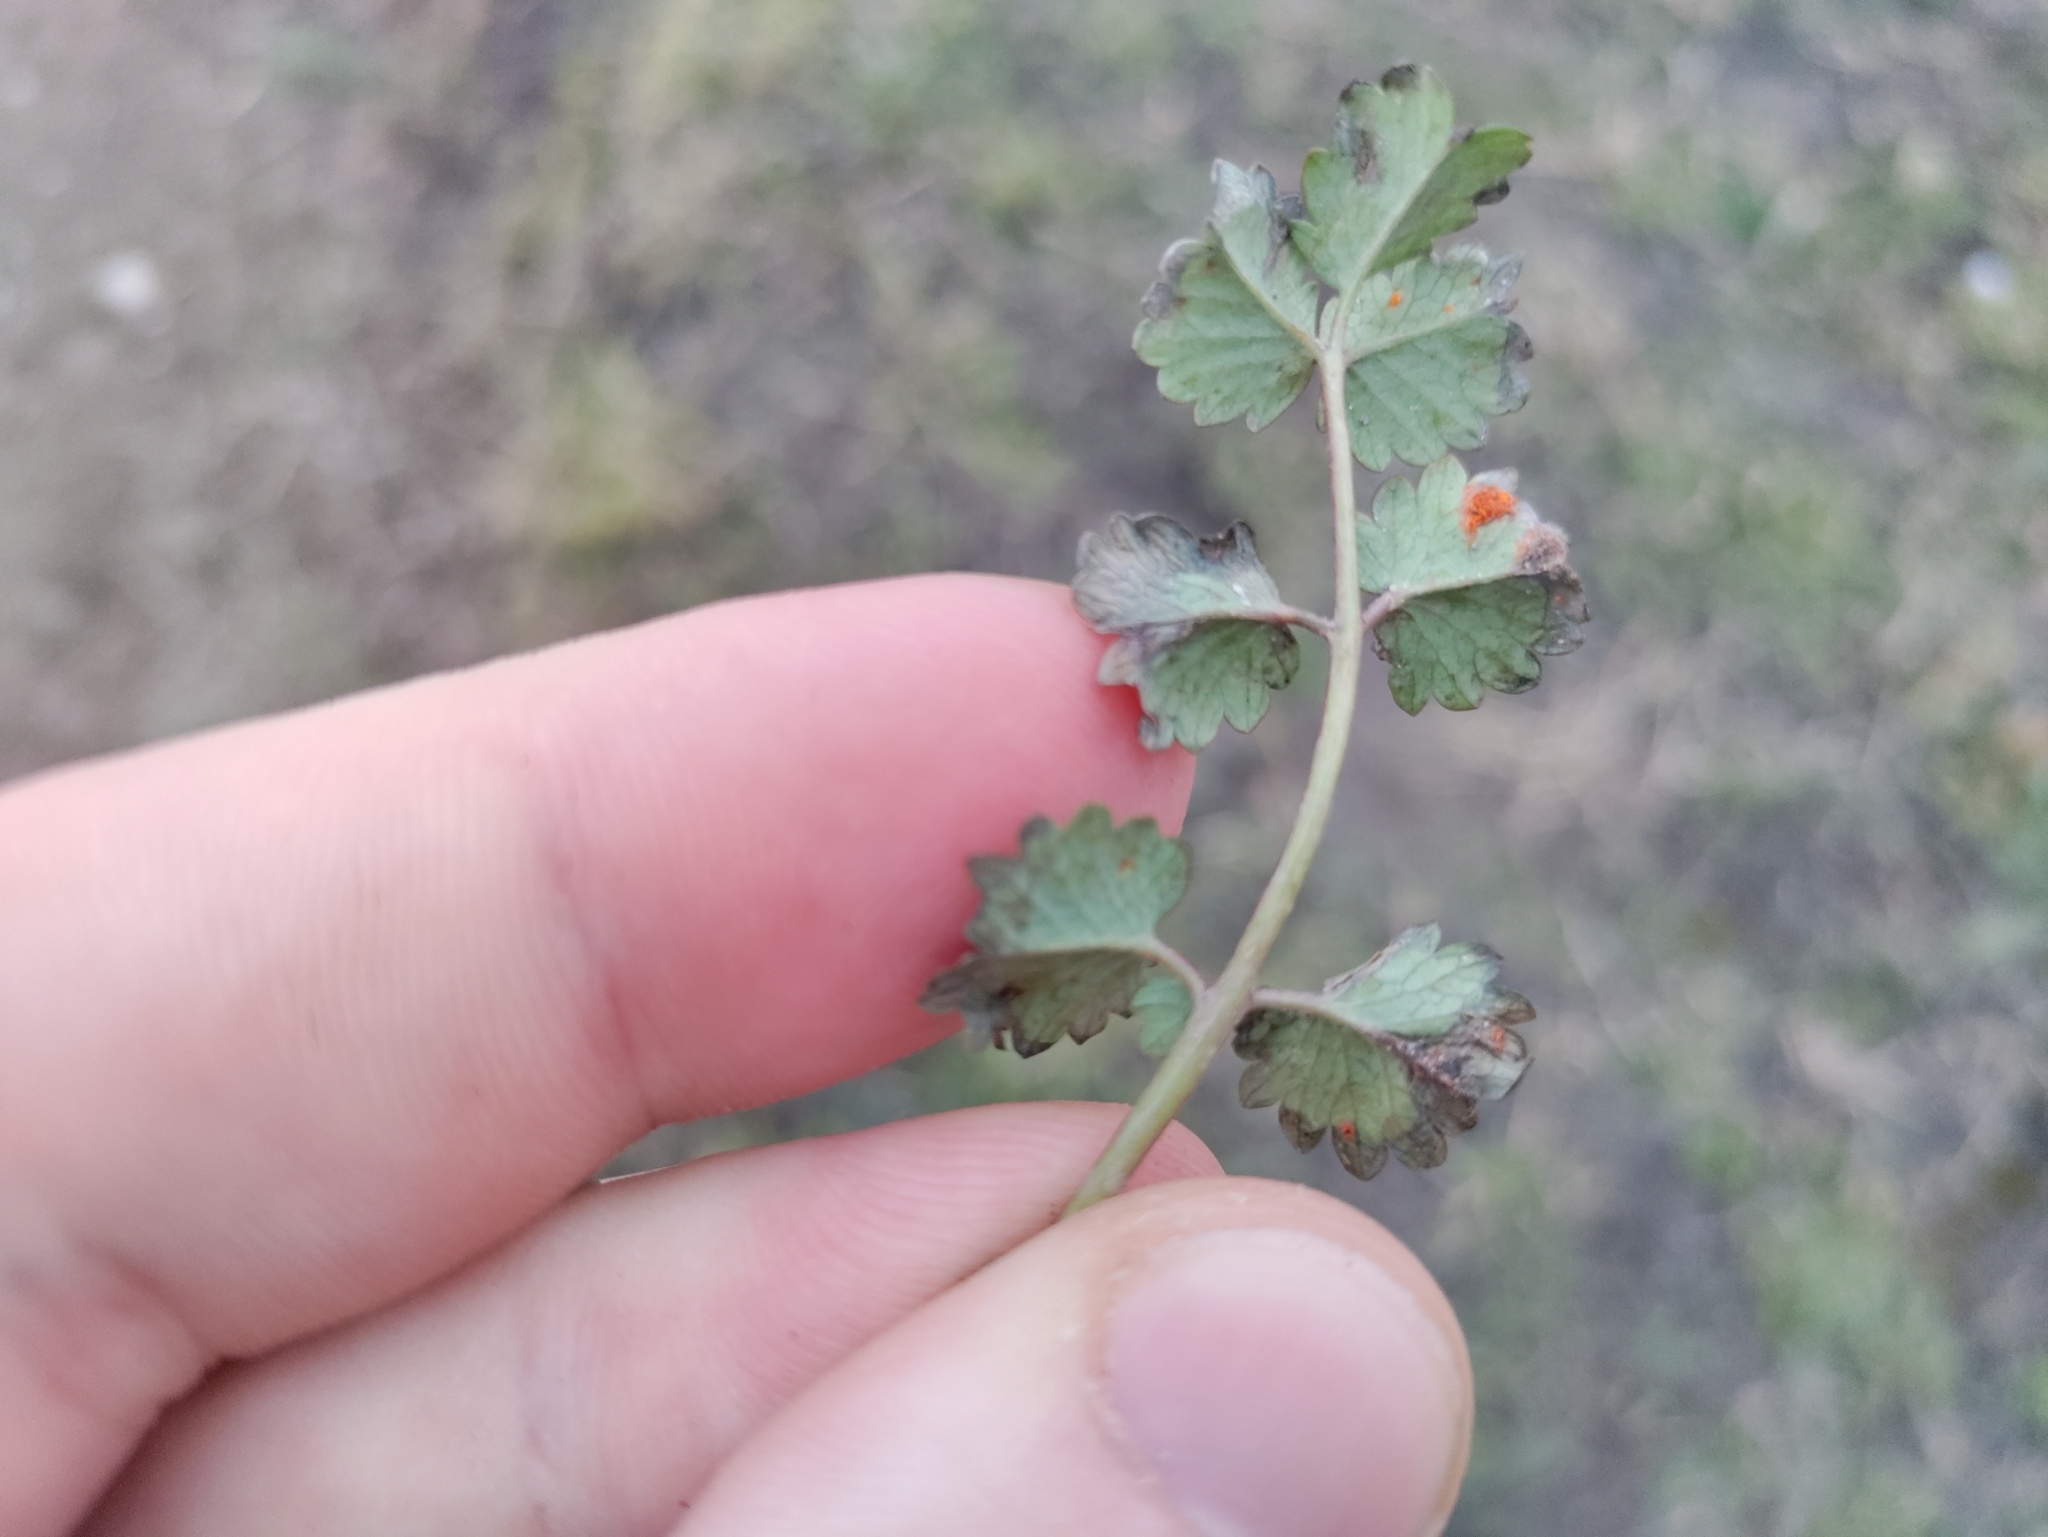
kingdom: Plantae
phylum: Tracheophyta
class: Magnoliopsida
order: Rosales
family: Rosaceae
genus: Poterium
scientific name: Poterium sanguisorba
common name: Salad burnet
